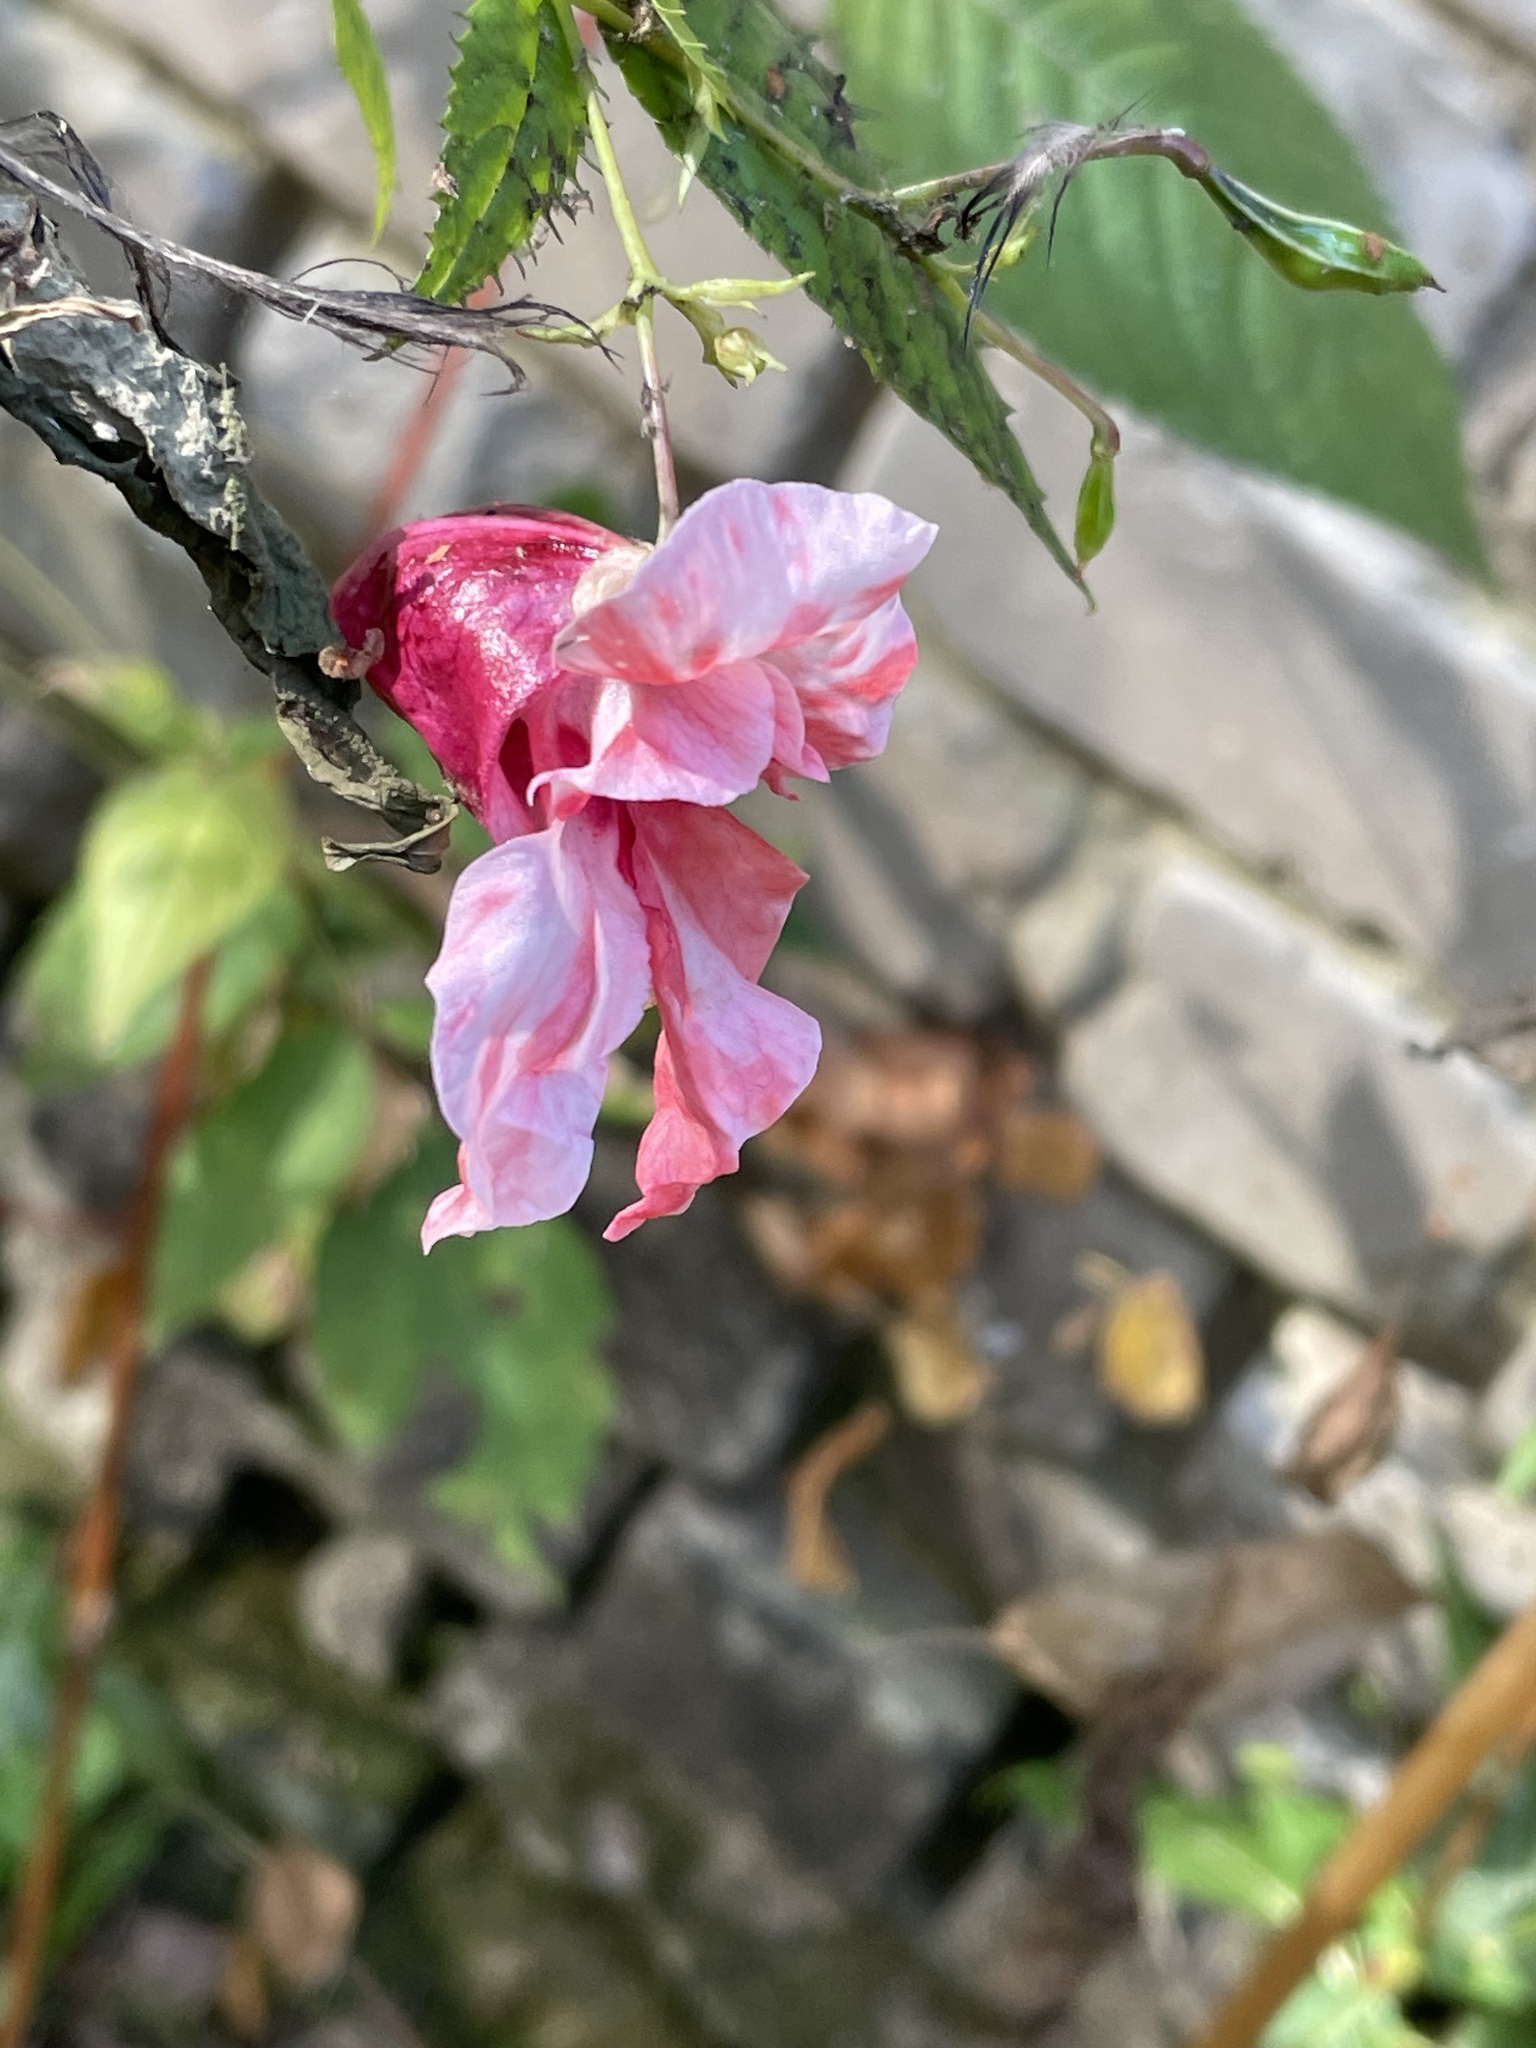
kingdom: Plantae
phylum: Tracheophyta
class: Magnoliopsida
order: Ericales
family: Balsaminaceae
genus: Impatiens
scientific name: Impatiens glandulifera
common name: Himalayan balsam
